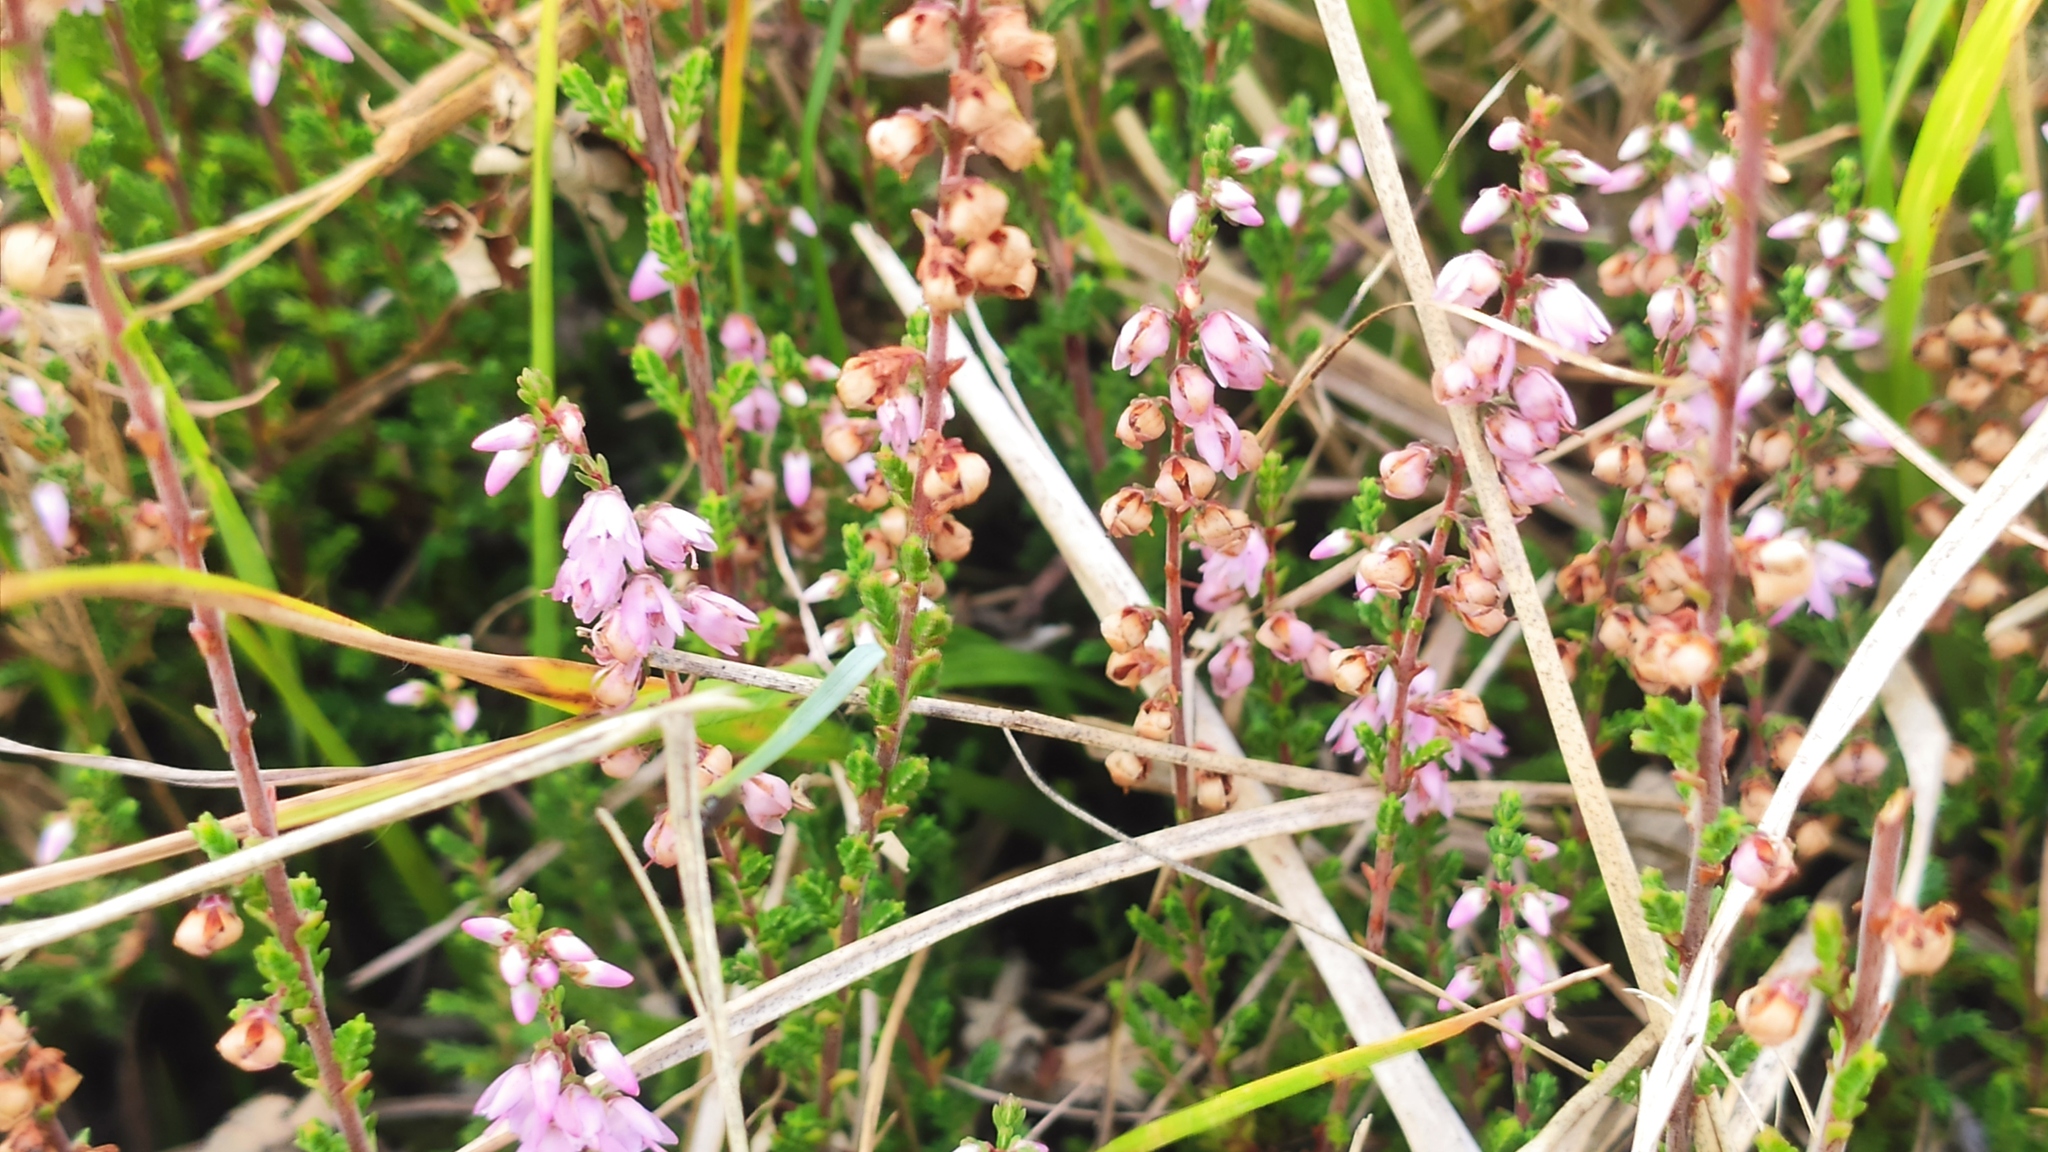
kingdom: Plantae
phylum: Tracheophyta
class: Magnoliopsida
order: Ericales
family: Ericaceae
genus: Calluna
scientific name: Calluna vulgaris
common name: Heather
